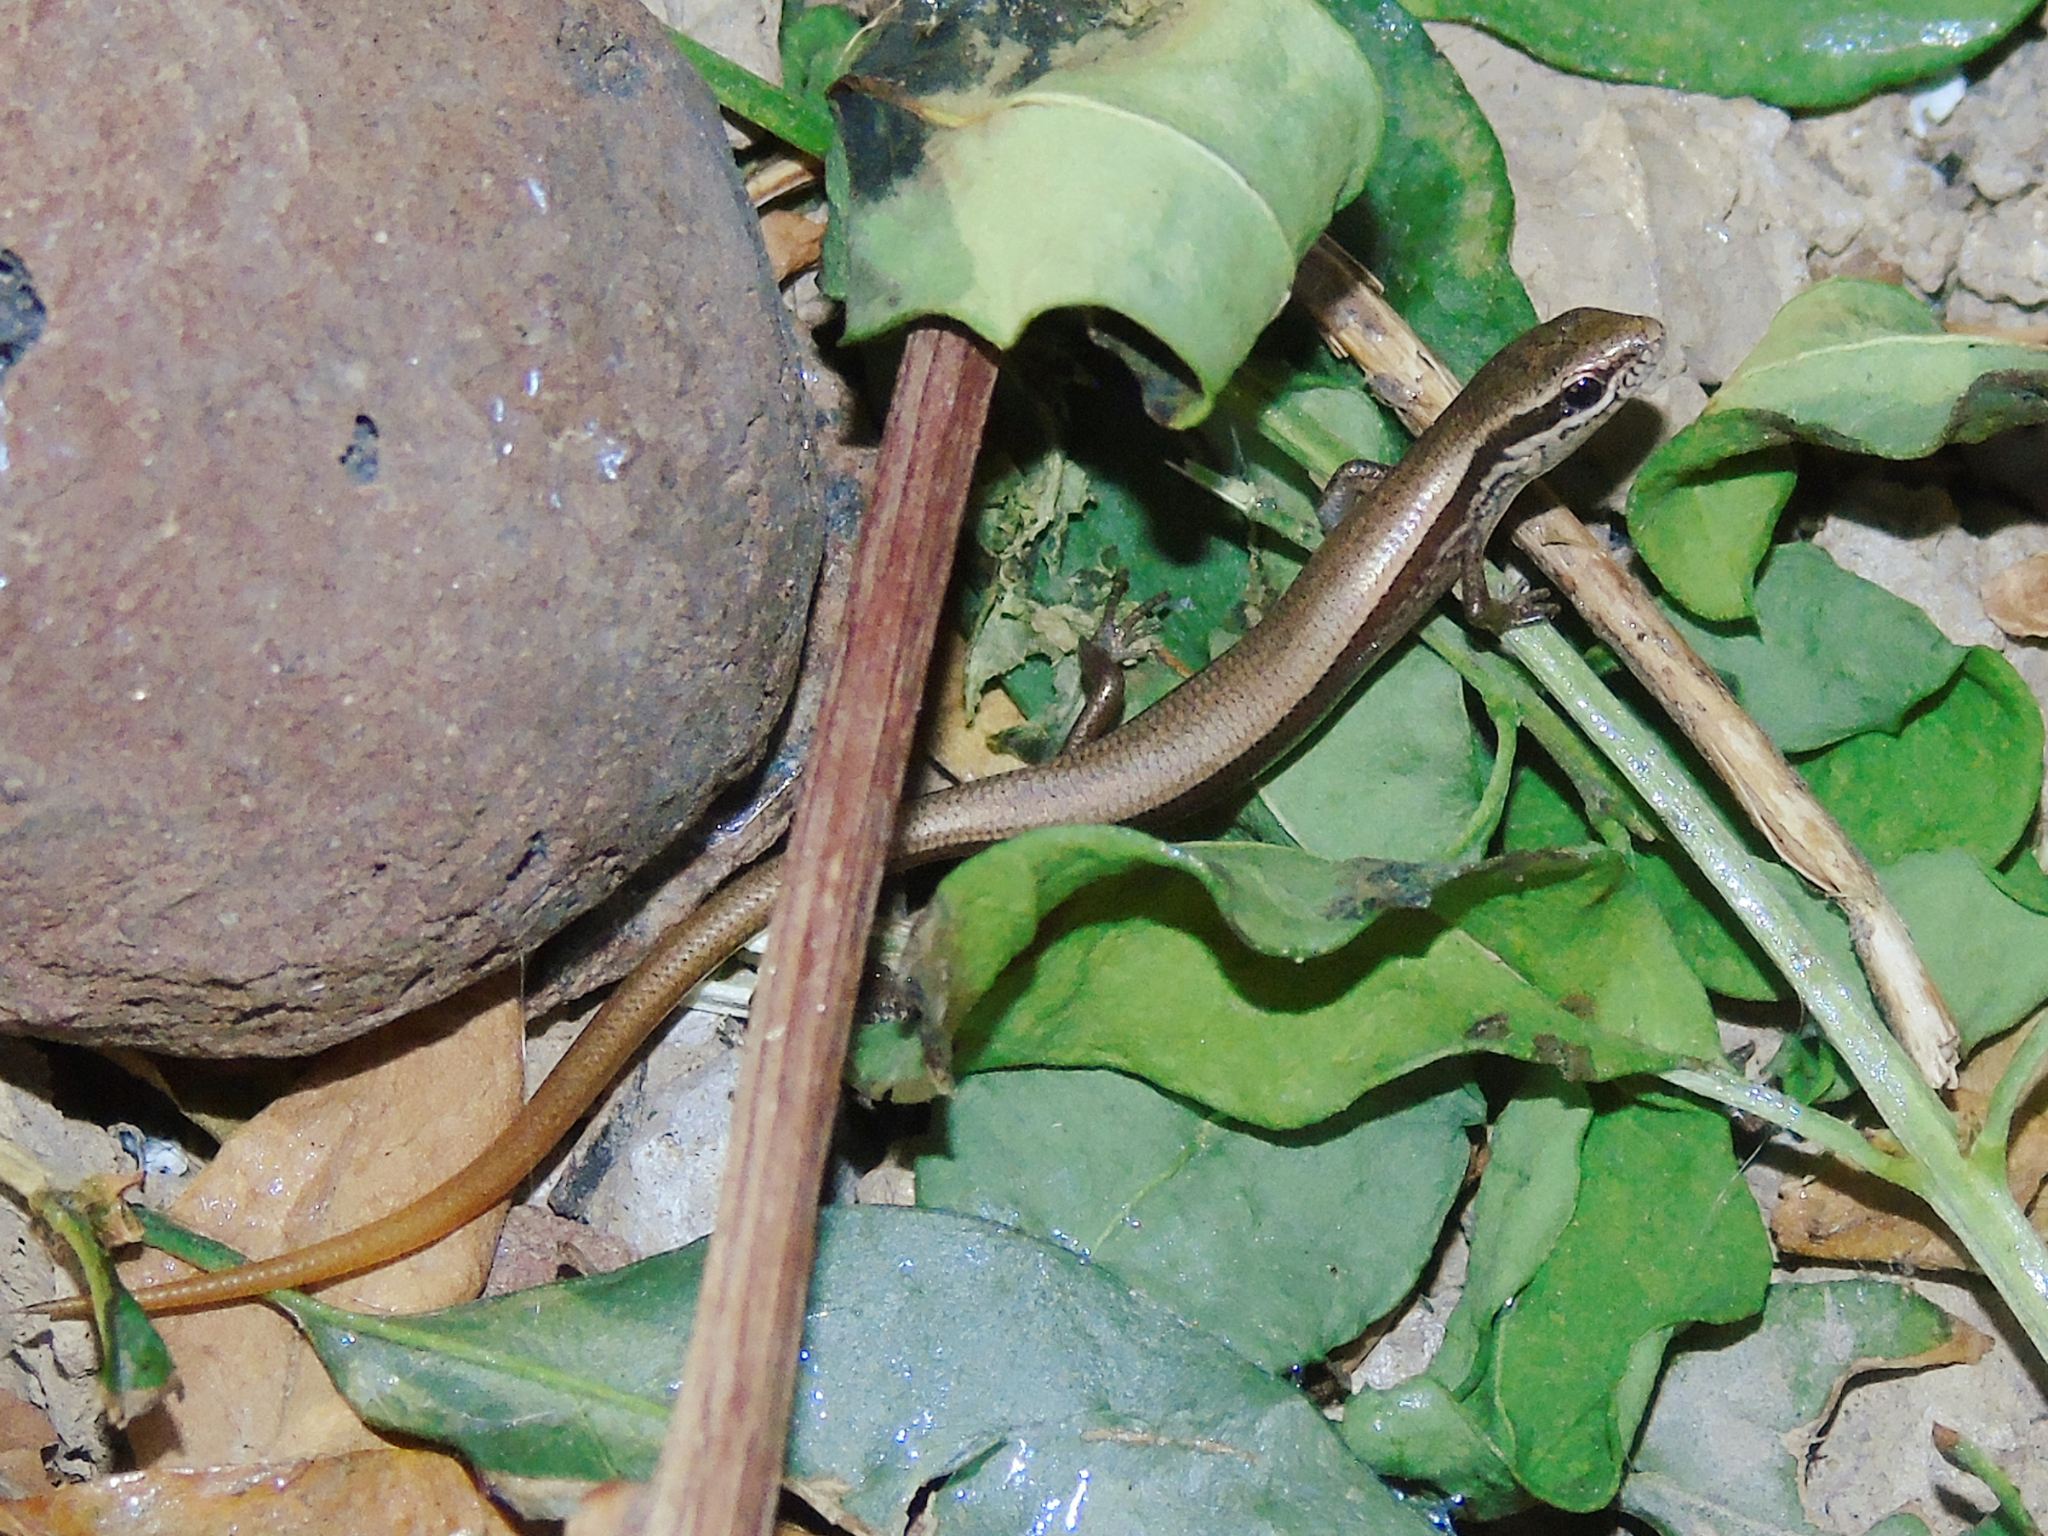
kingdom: Animalia
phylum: Chordata
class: Squamata
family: Scincidae
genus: Ablepharus
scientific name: Ablepharus deserti
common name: Desert lidless skink
